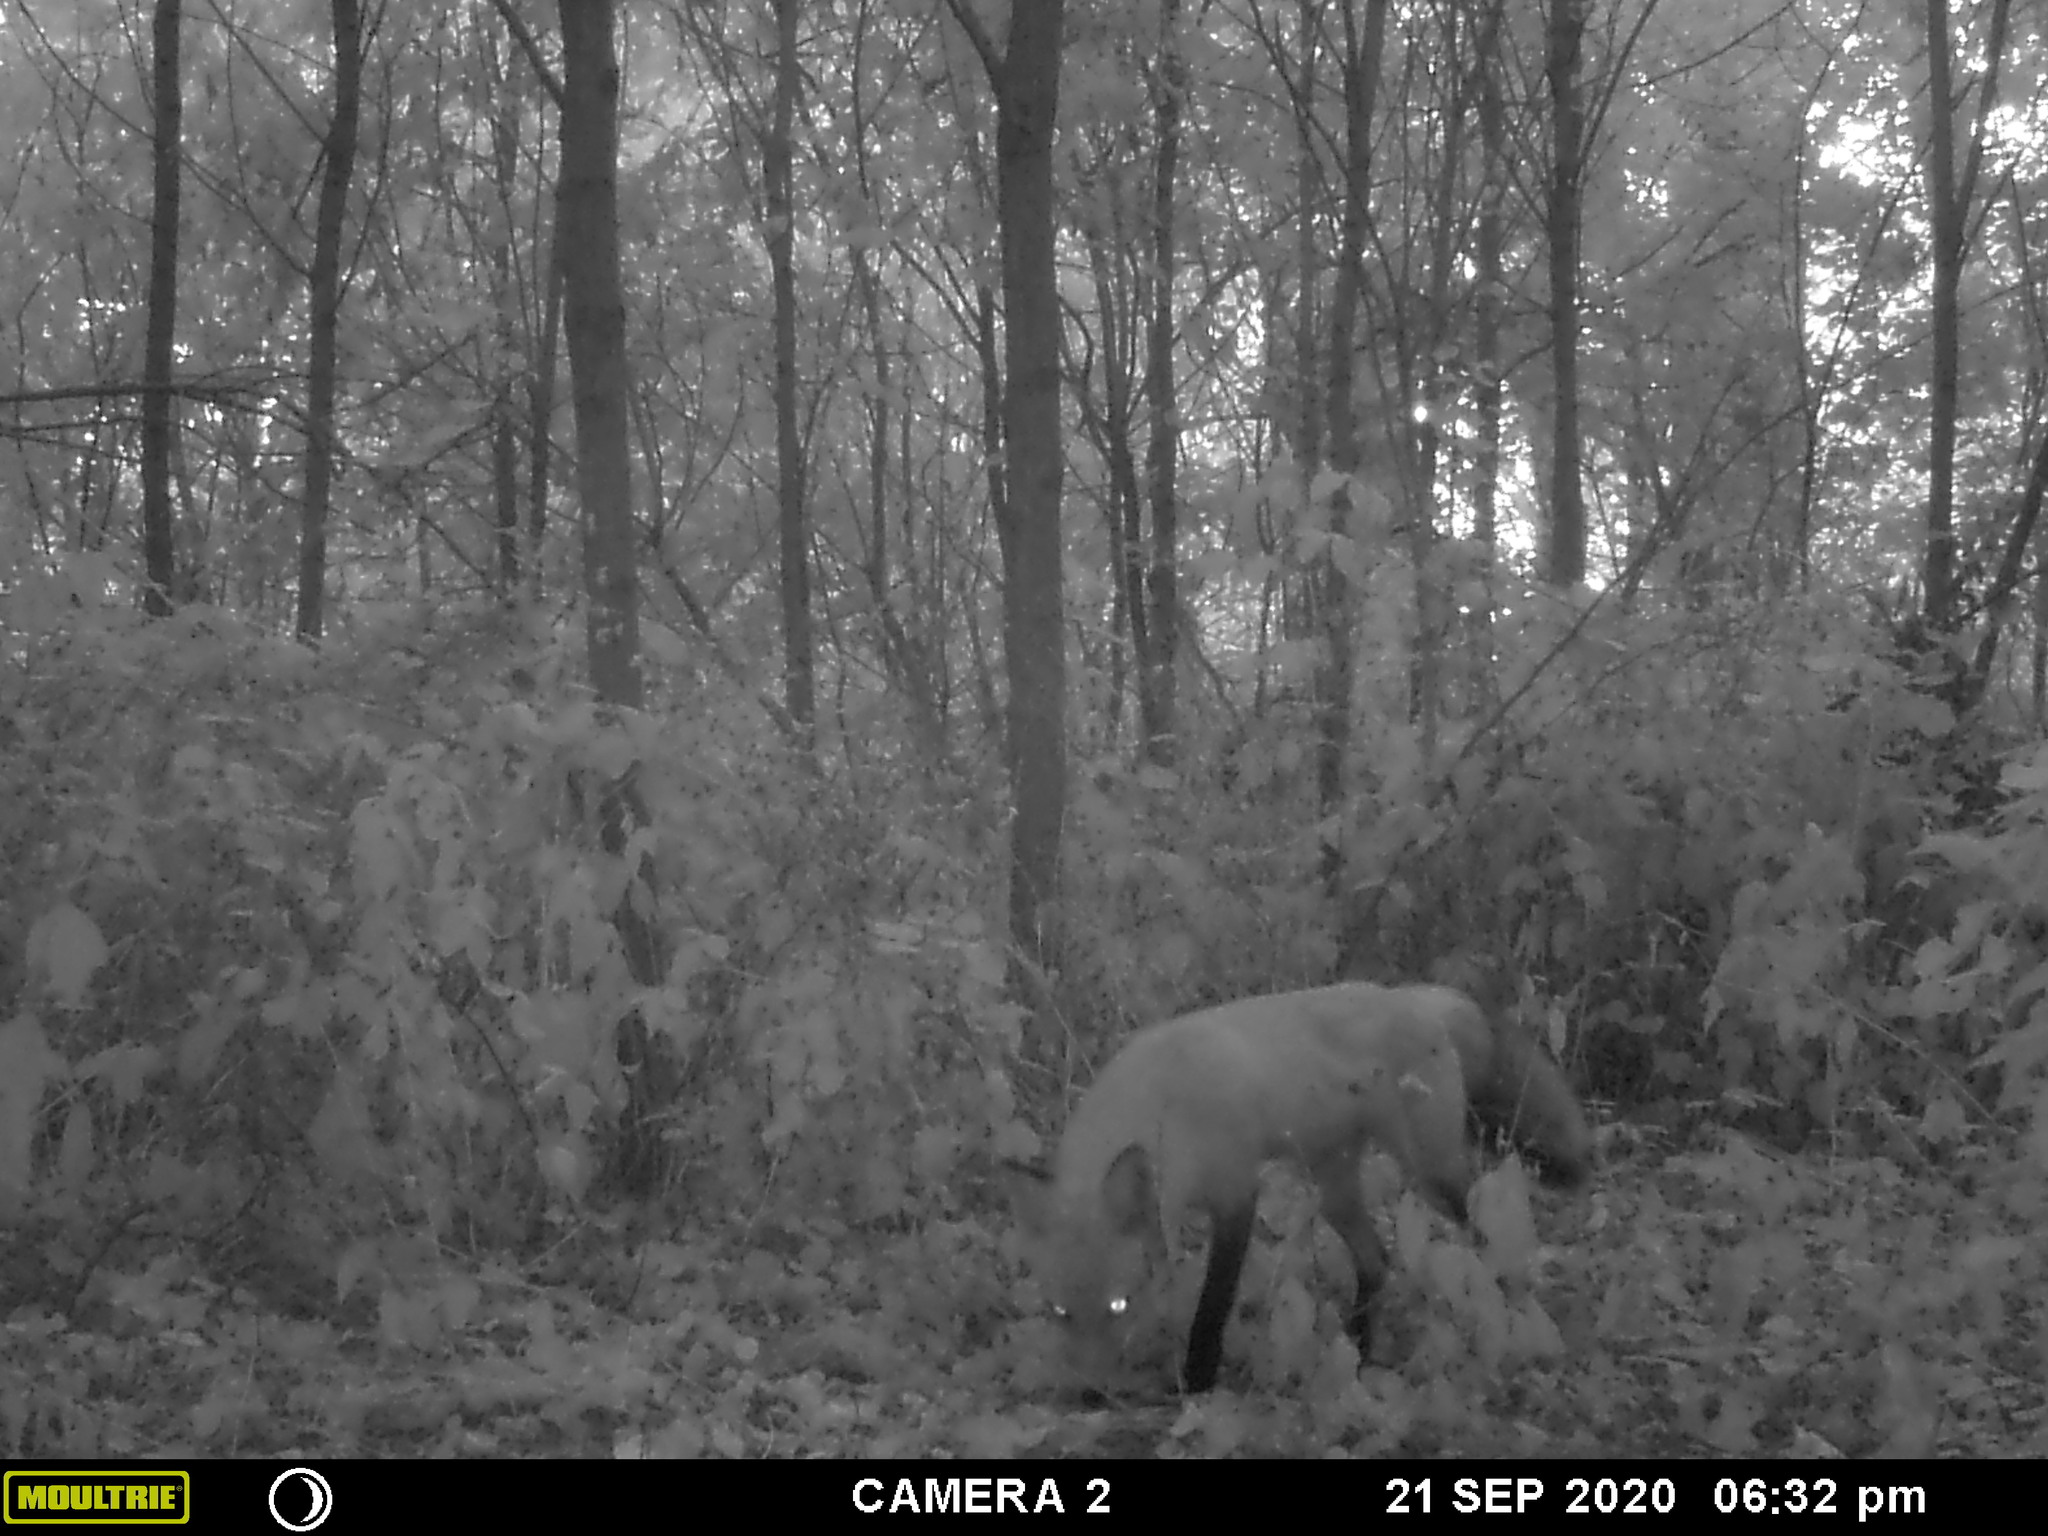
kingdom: Animalia
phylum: Chordata
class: Mammalia
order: Carnivora
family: Canidae
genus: Vulpes
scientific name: Vulpes vulpes
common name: Red fox
